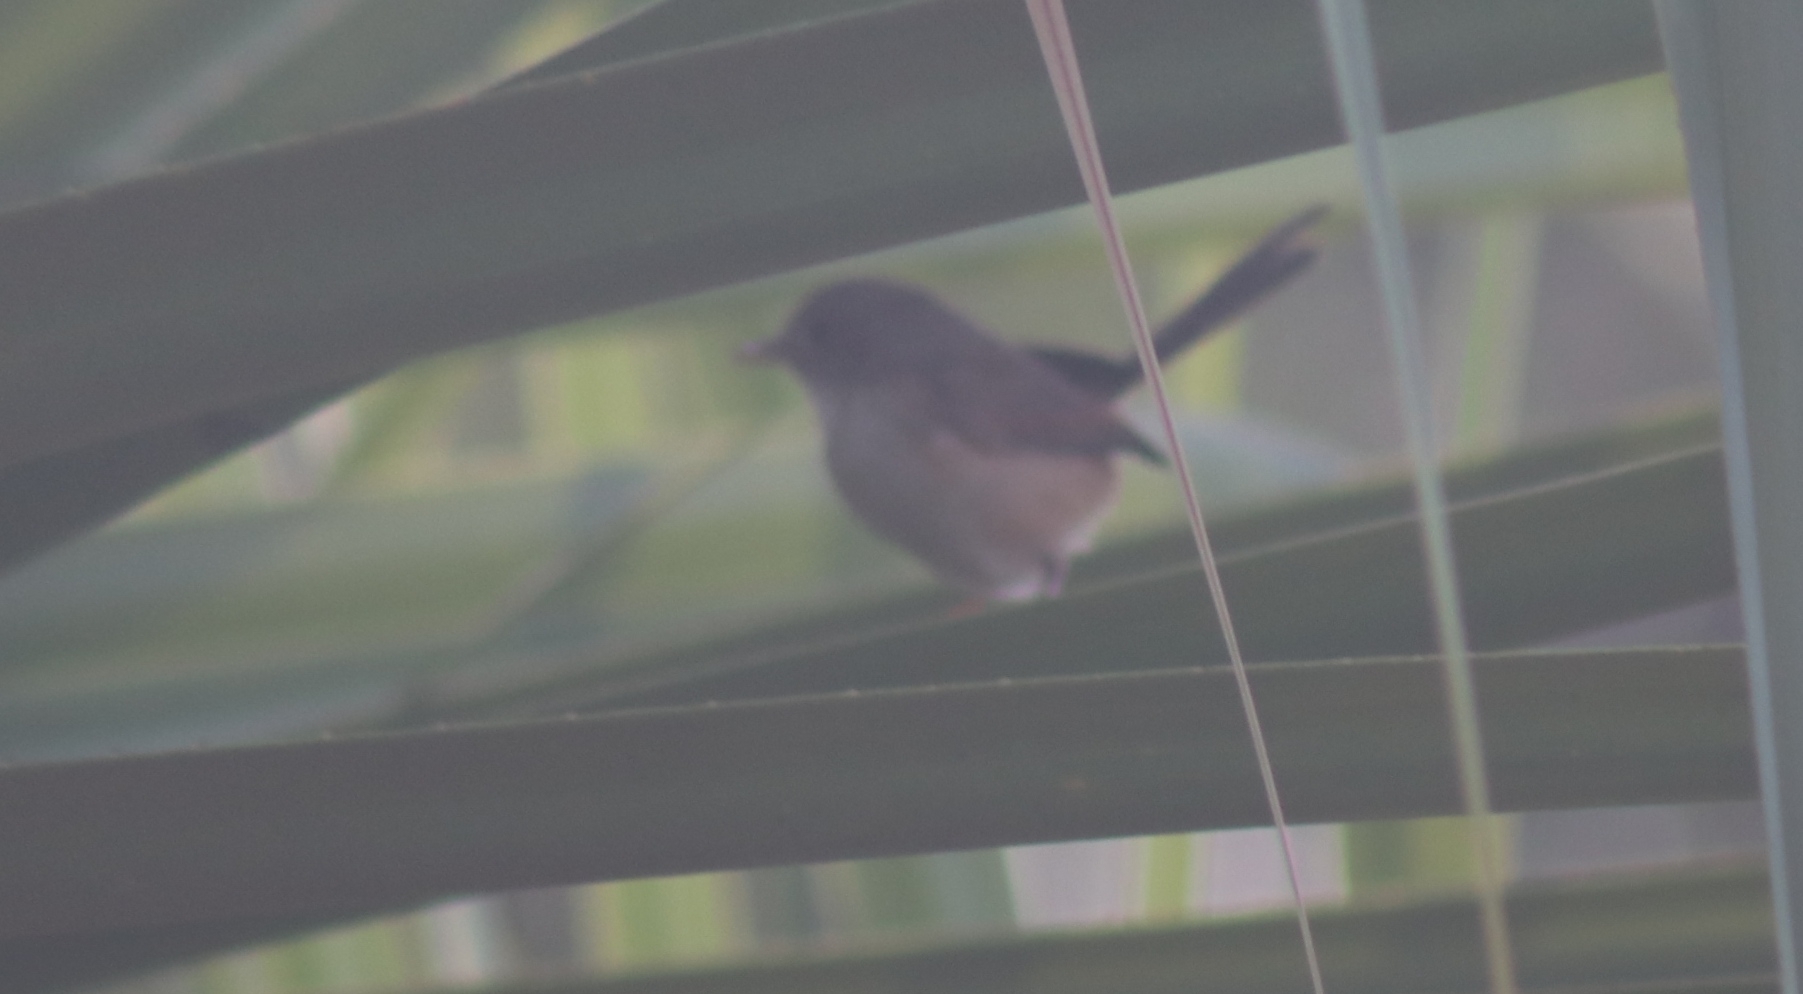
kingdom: Animalia
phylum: Chordata
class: Aves
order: Passeriformes
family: Maluridae
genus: Malurus
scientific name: Malurus melanocephalus
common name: Red-backed fairywren
